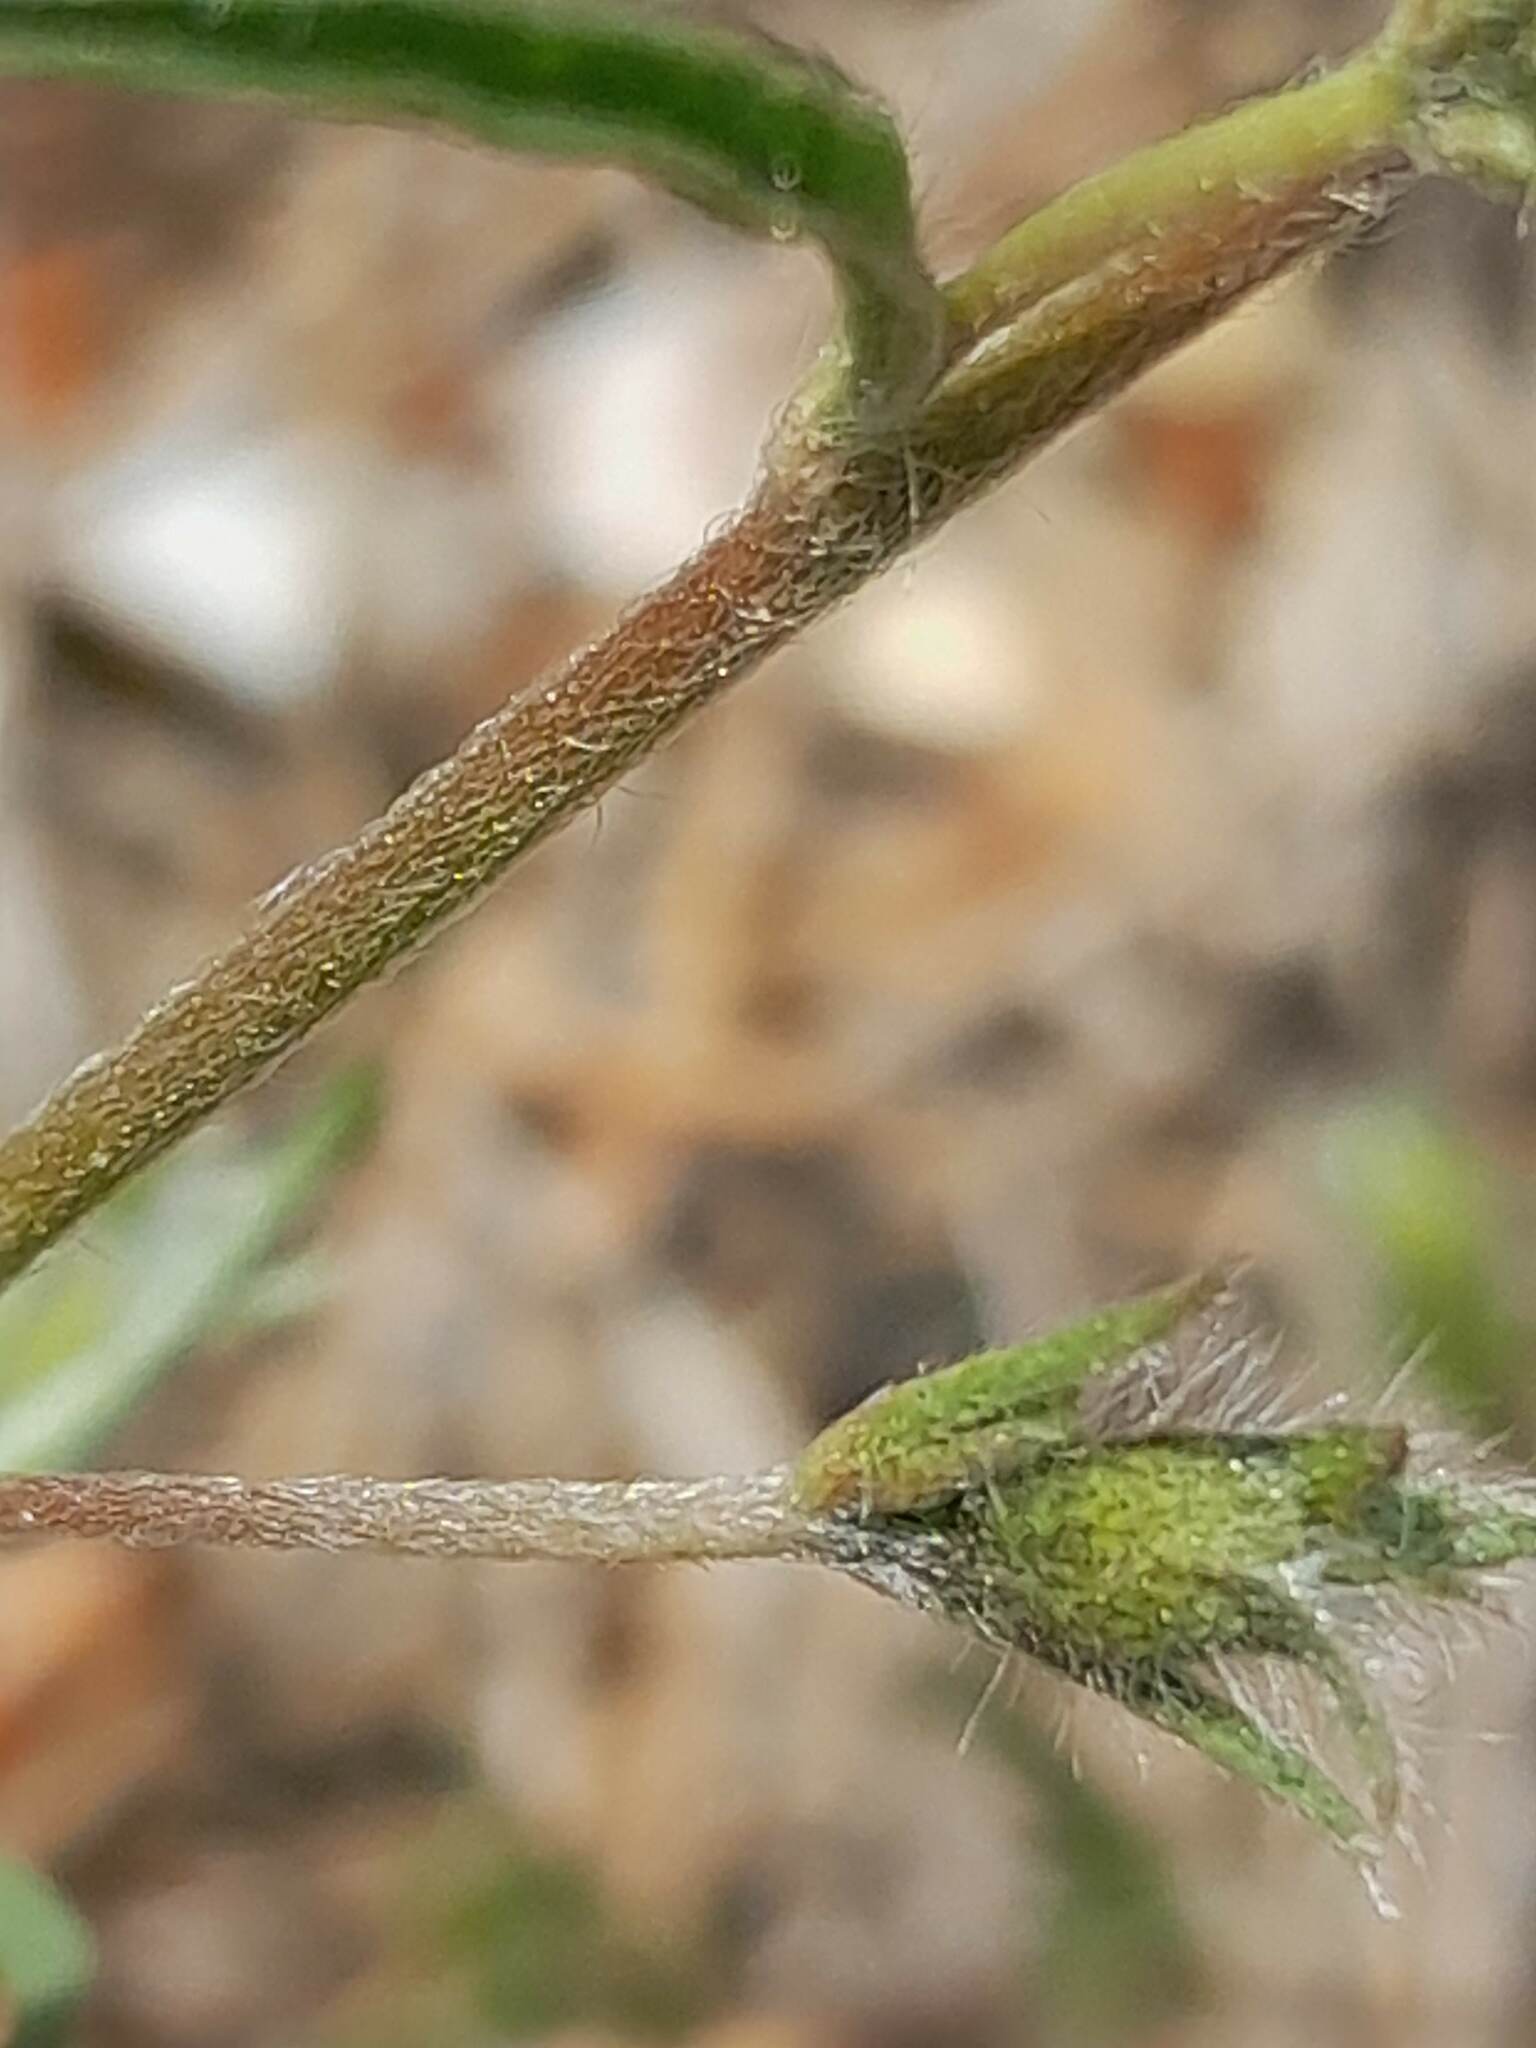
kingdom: Plantae
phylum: Tracheophyta
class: Magnoliopsida
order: Solanales
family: Convolvulaceae
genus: Convolvulus
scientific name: Convolvulus cantabrica
